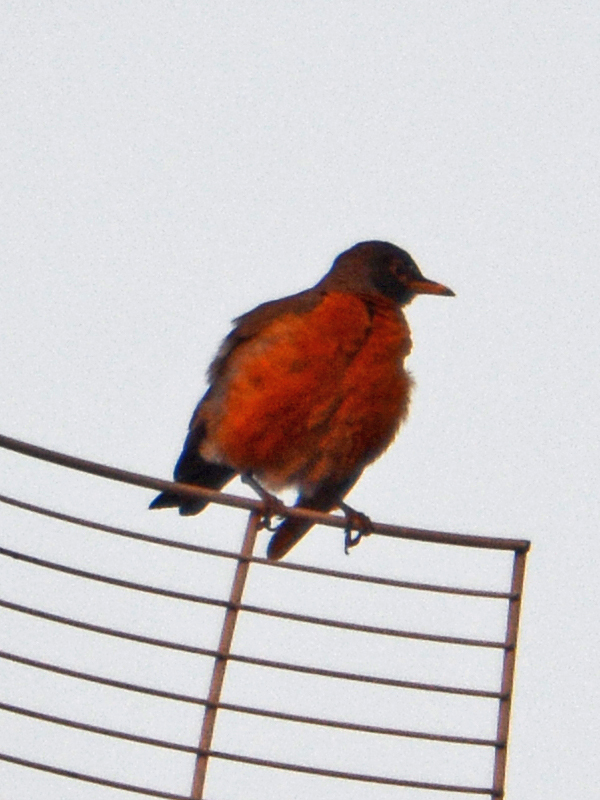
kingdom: Animalia
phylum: Chordata
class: Aves
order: Passeriformes
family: Turdidae
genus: Turdus
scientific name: Turdus migratorius
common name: American robin
